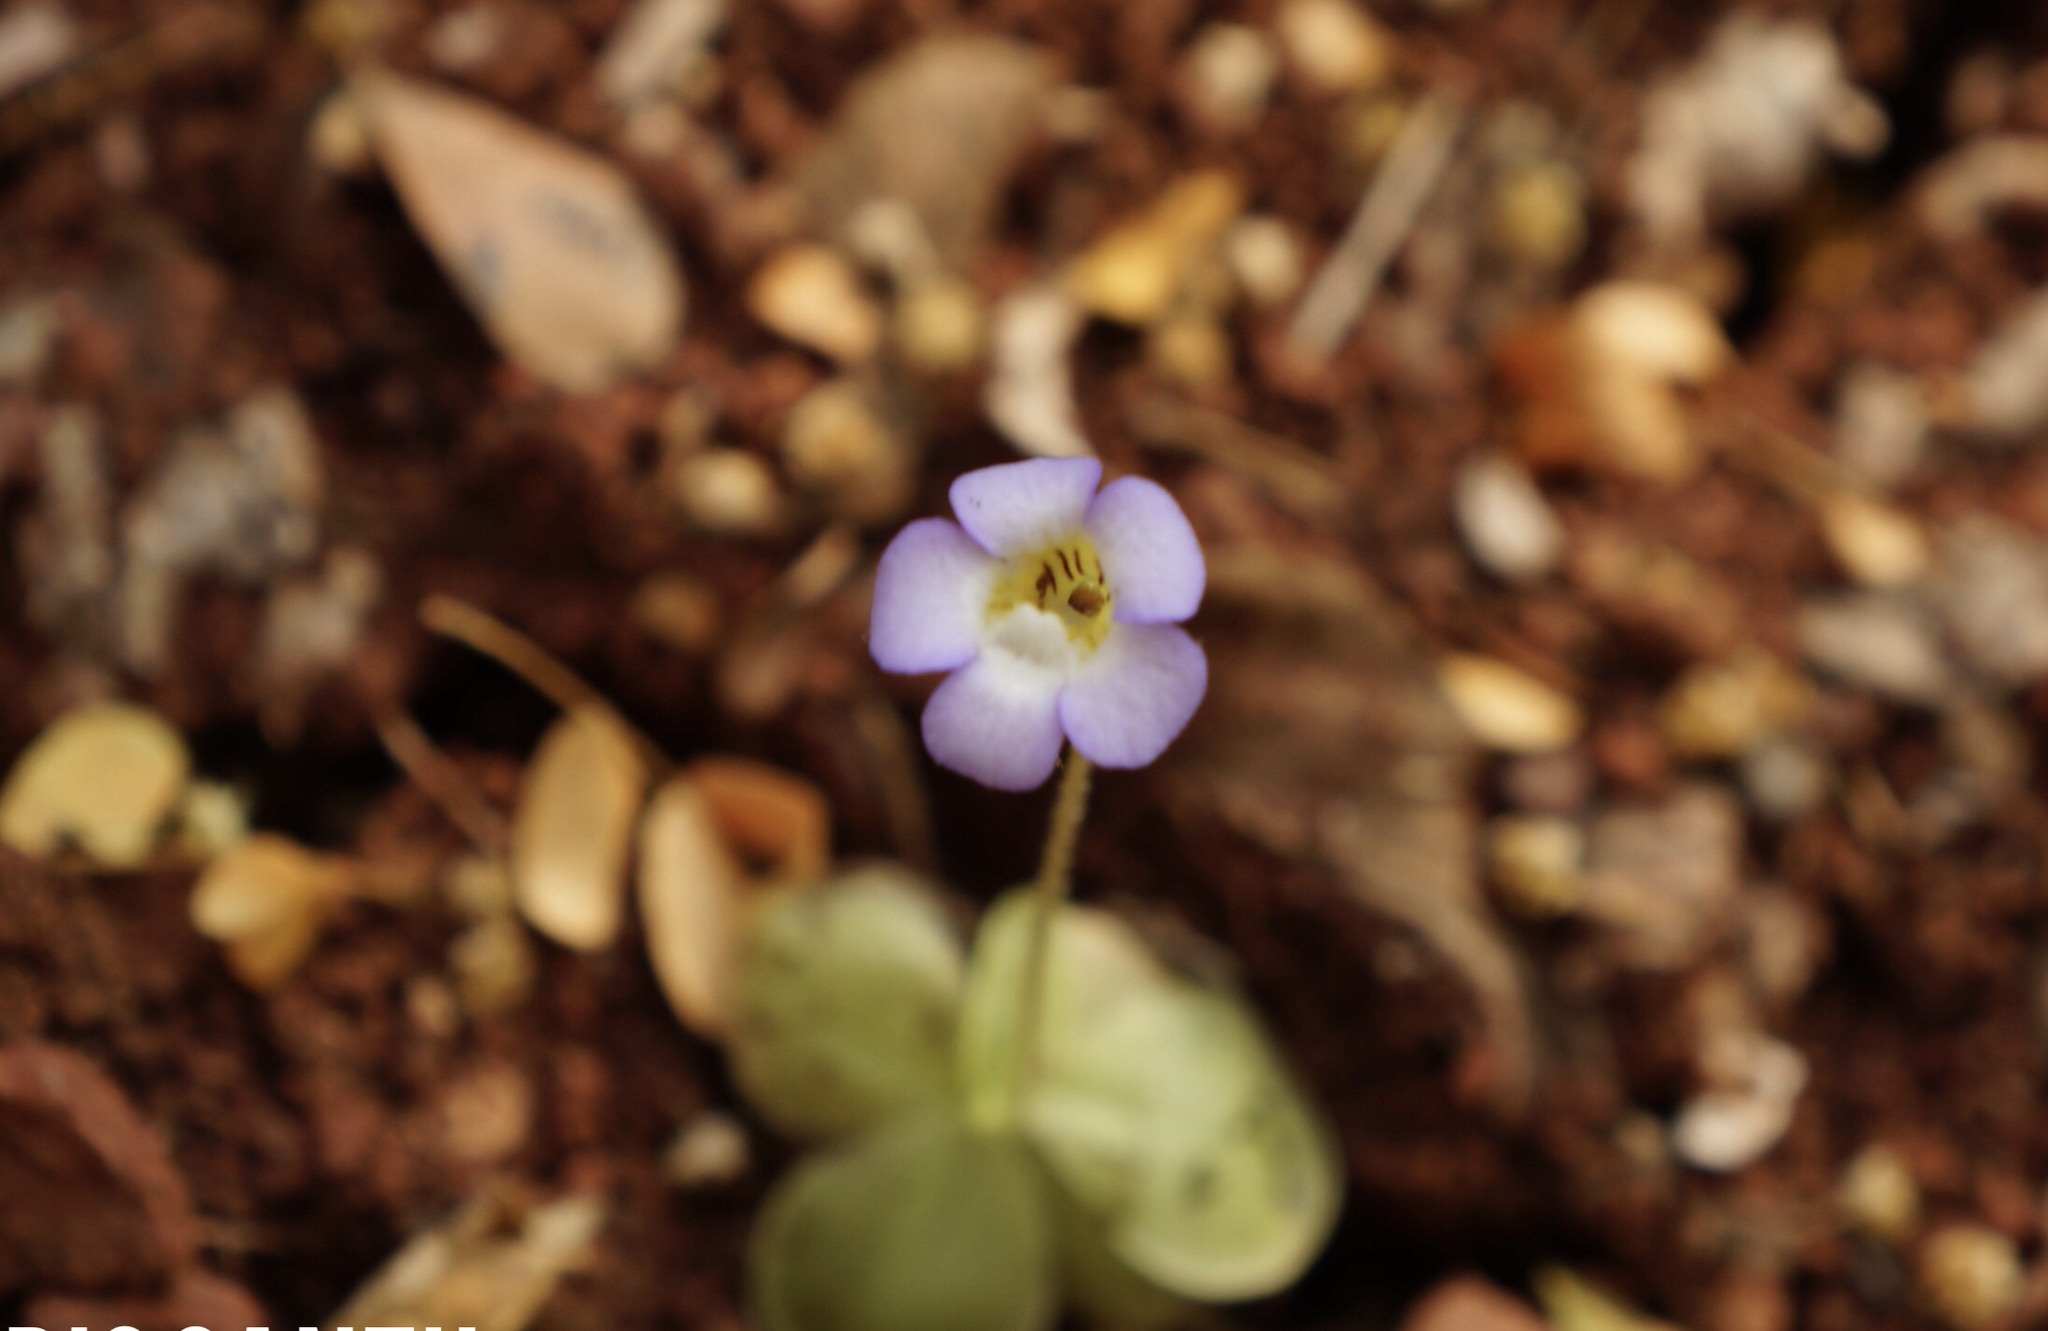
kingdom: Plantae
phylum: Tracheophyta
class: Magnoliopsida
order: Lamiales
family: Lentibulariaceae
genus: Pinguicula
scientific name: Pinguicula lilacina
